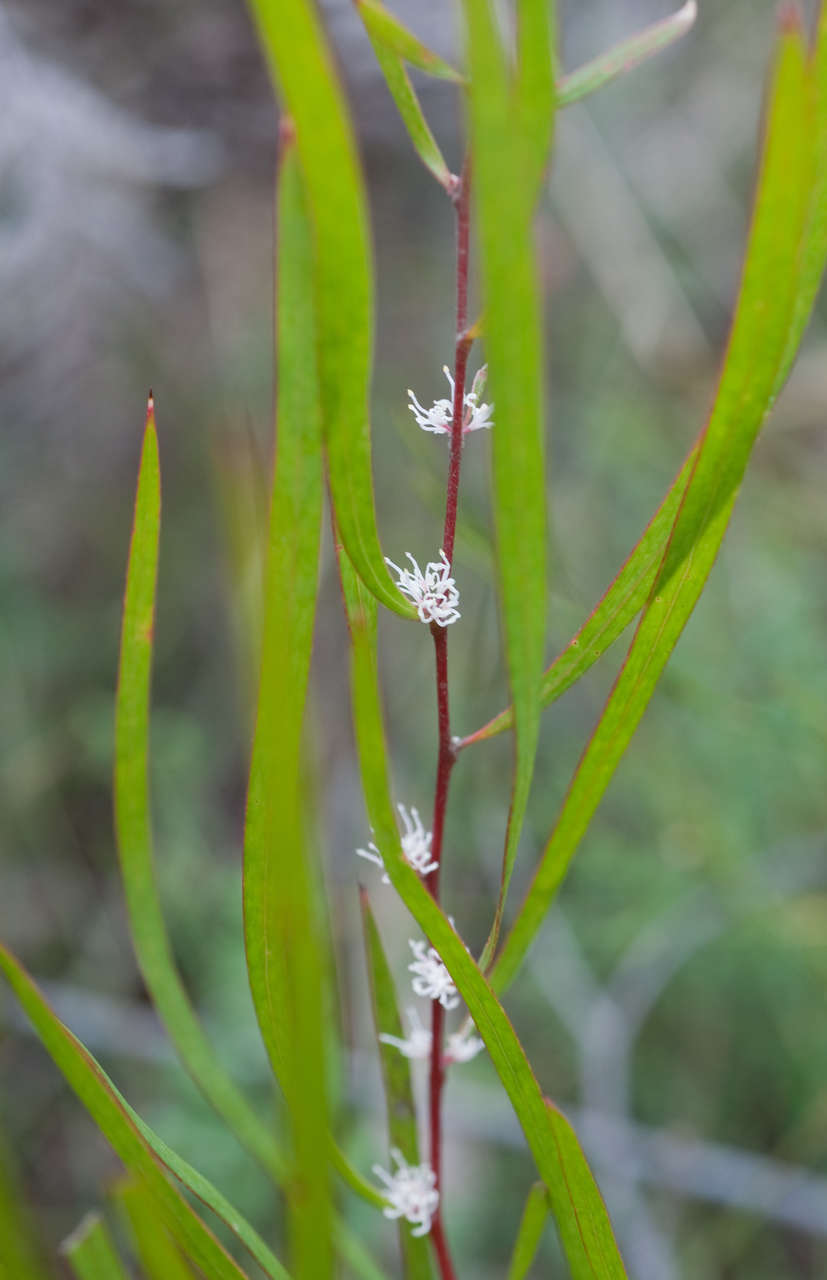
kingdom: Plantae
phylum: Tracheophyta
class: Magnoliopsida
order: Proteales
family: Proteaceae
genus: Hakea
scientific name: Hakea eriantha
